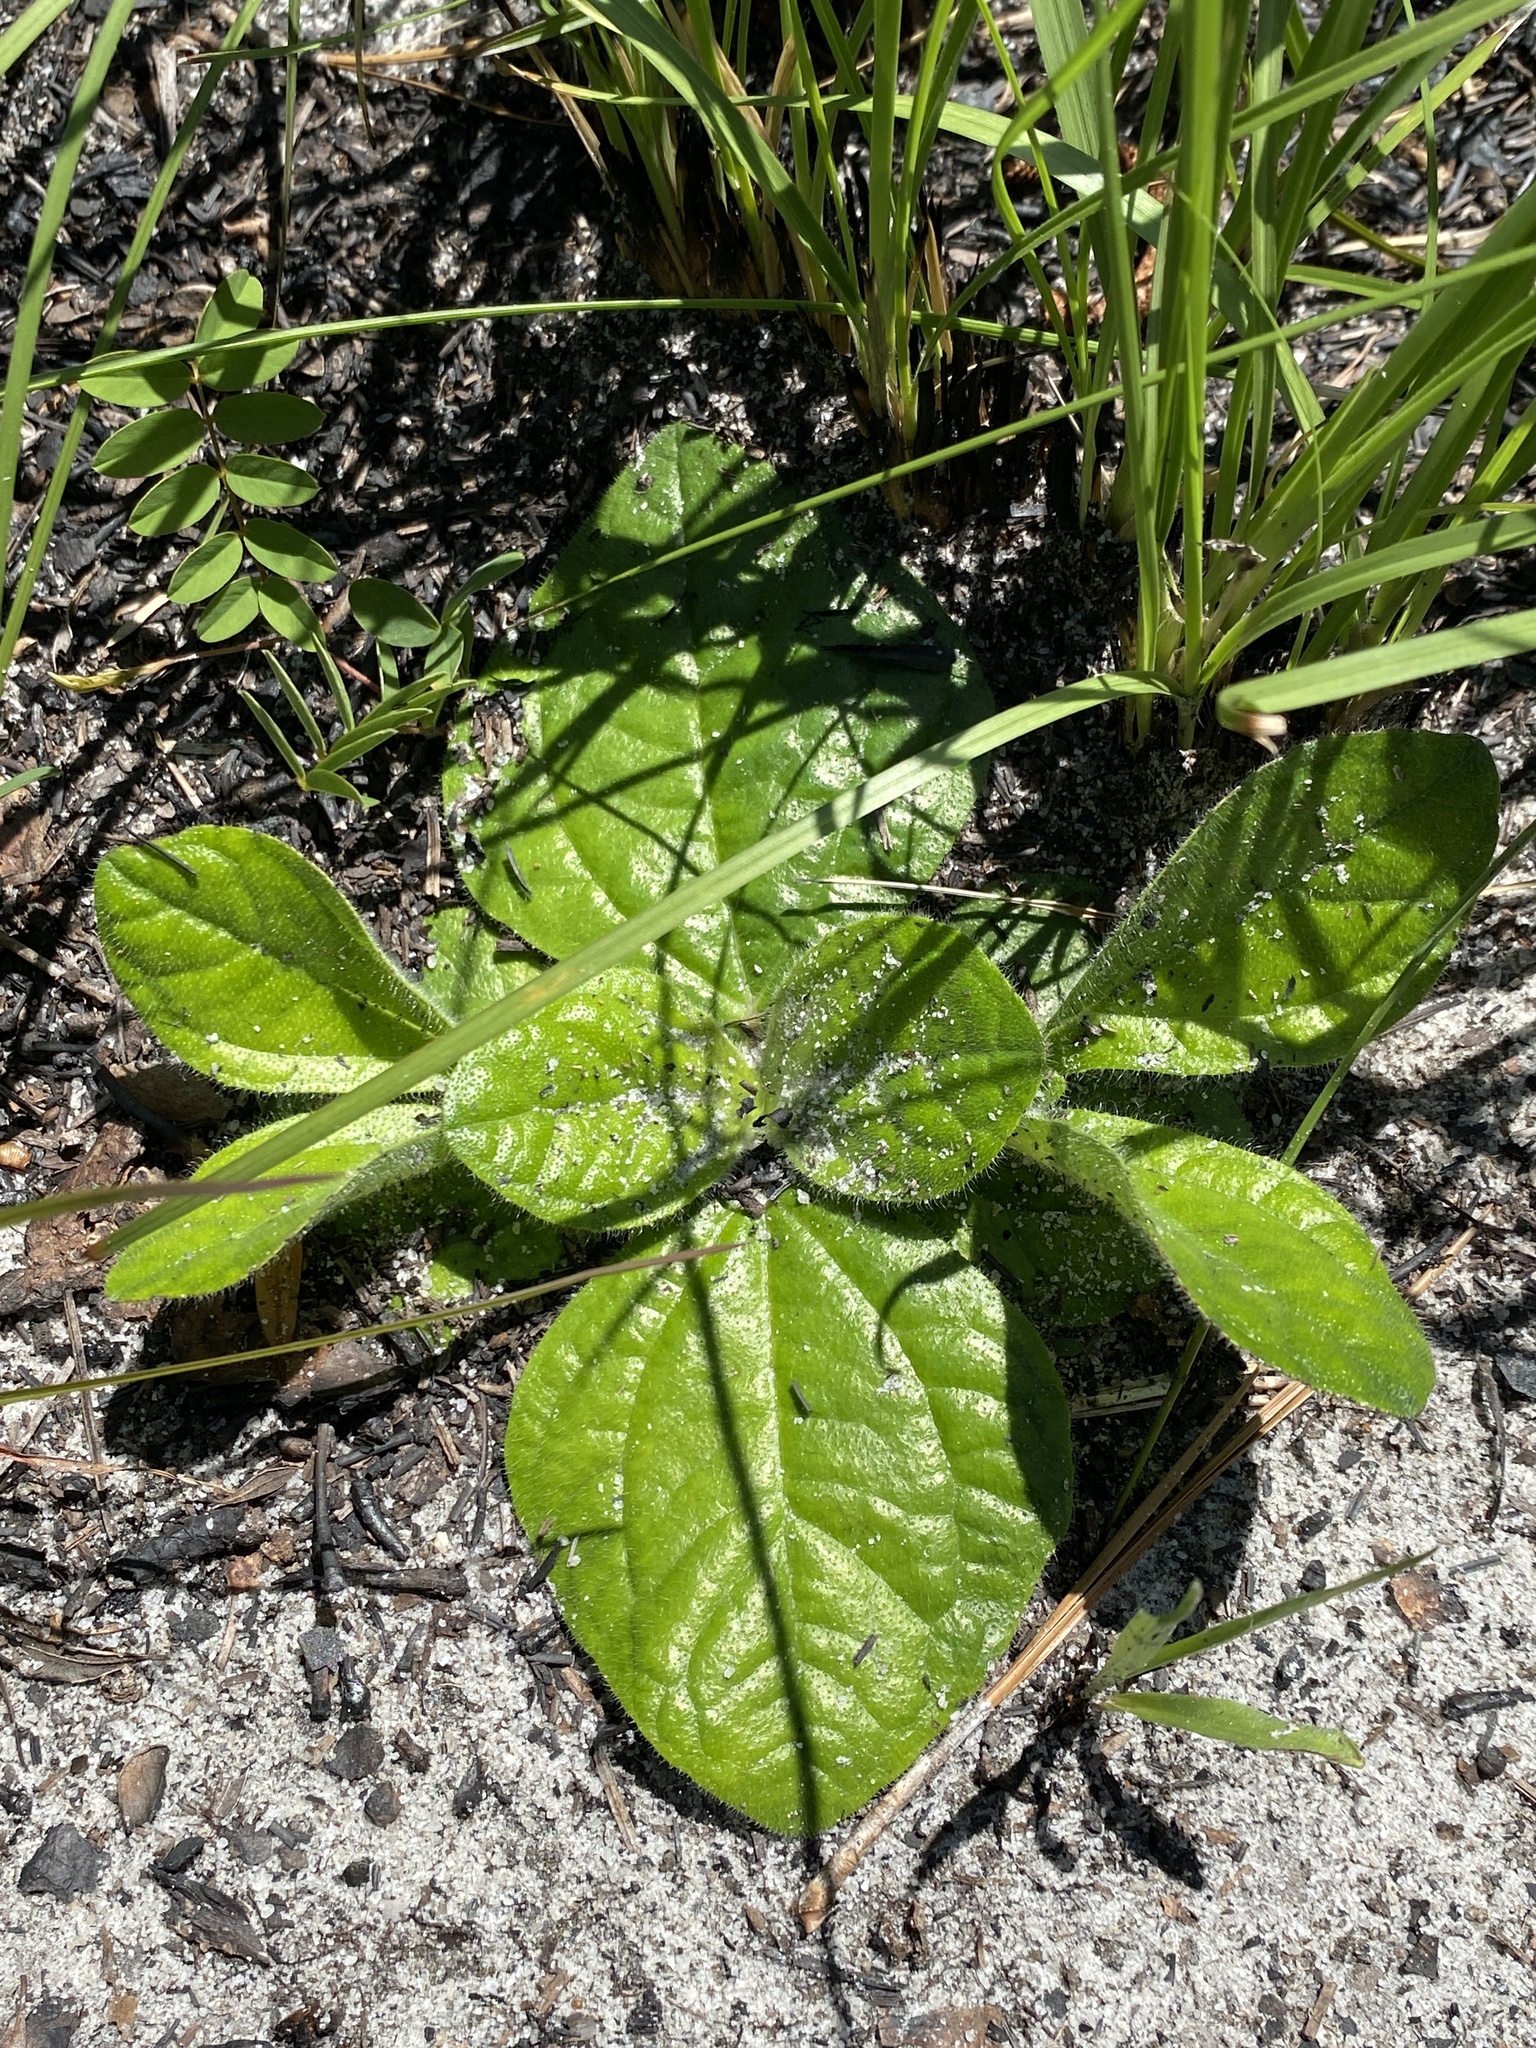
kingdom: Plantae
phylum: Tracheophyta
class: Magnoliopsida
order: Asterales
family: Asteraceae
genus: Helianthus
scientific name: Helianthus radula
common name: Pineland sunflower
